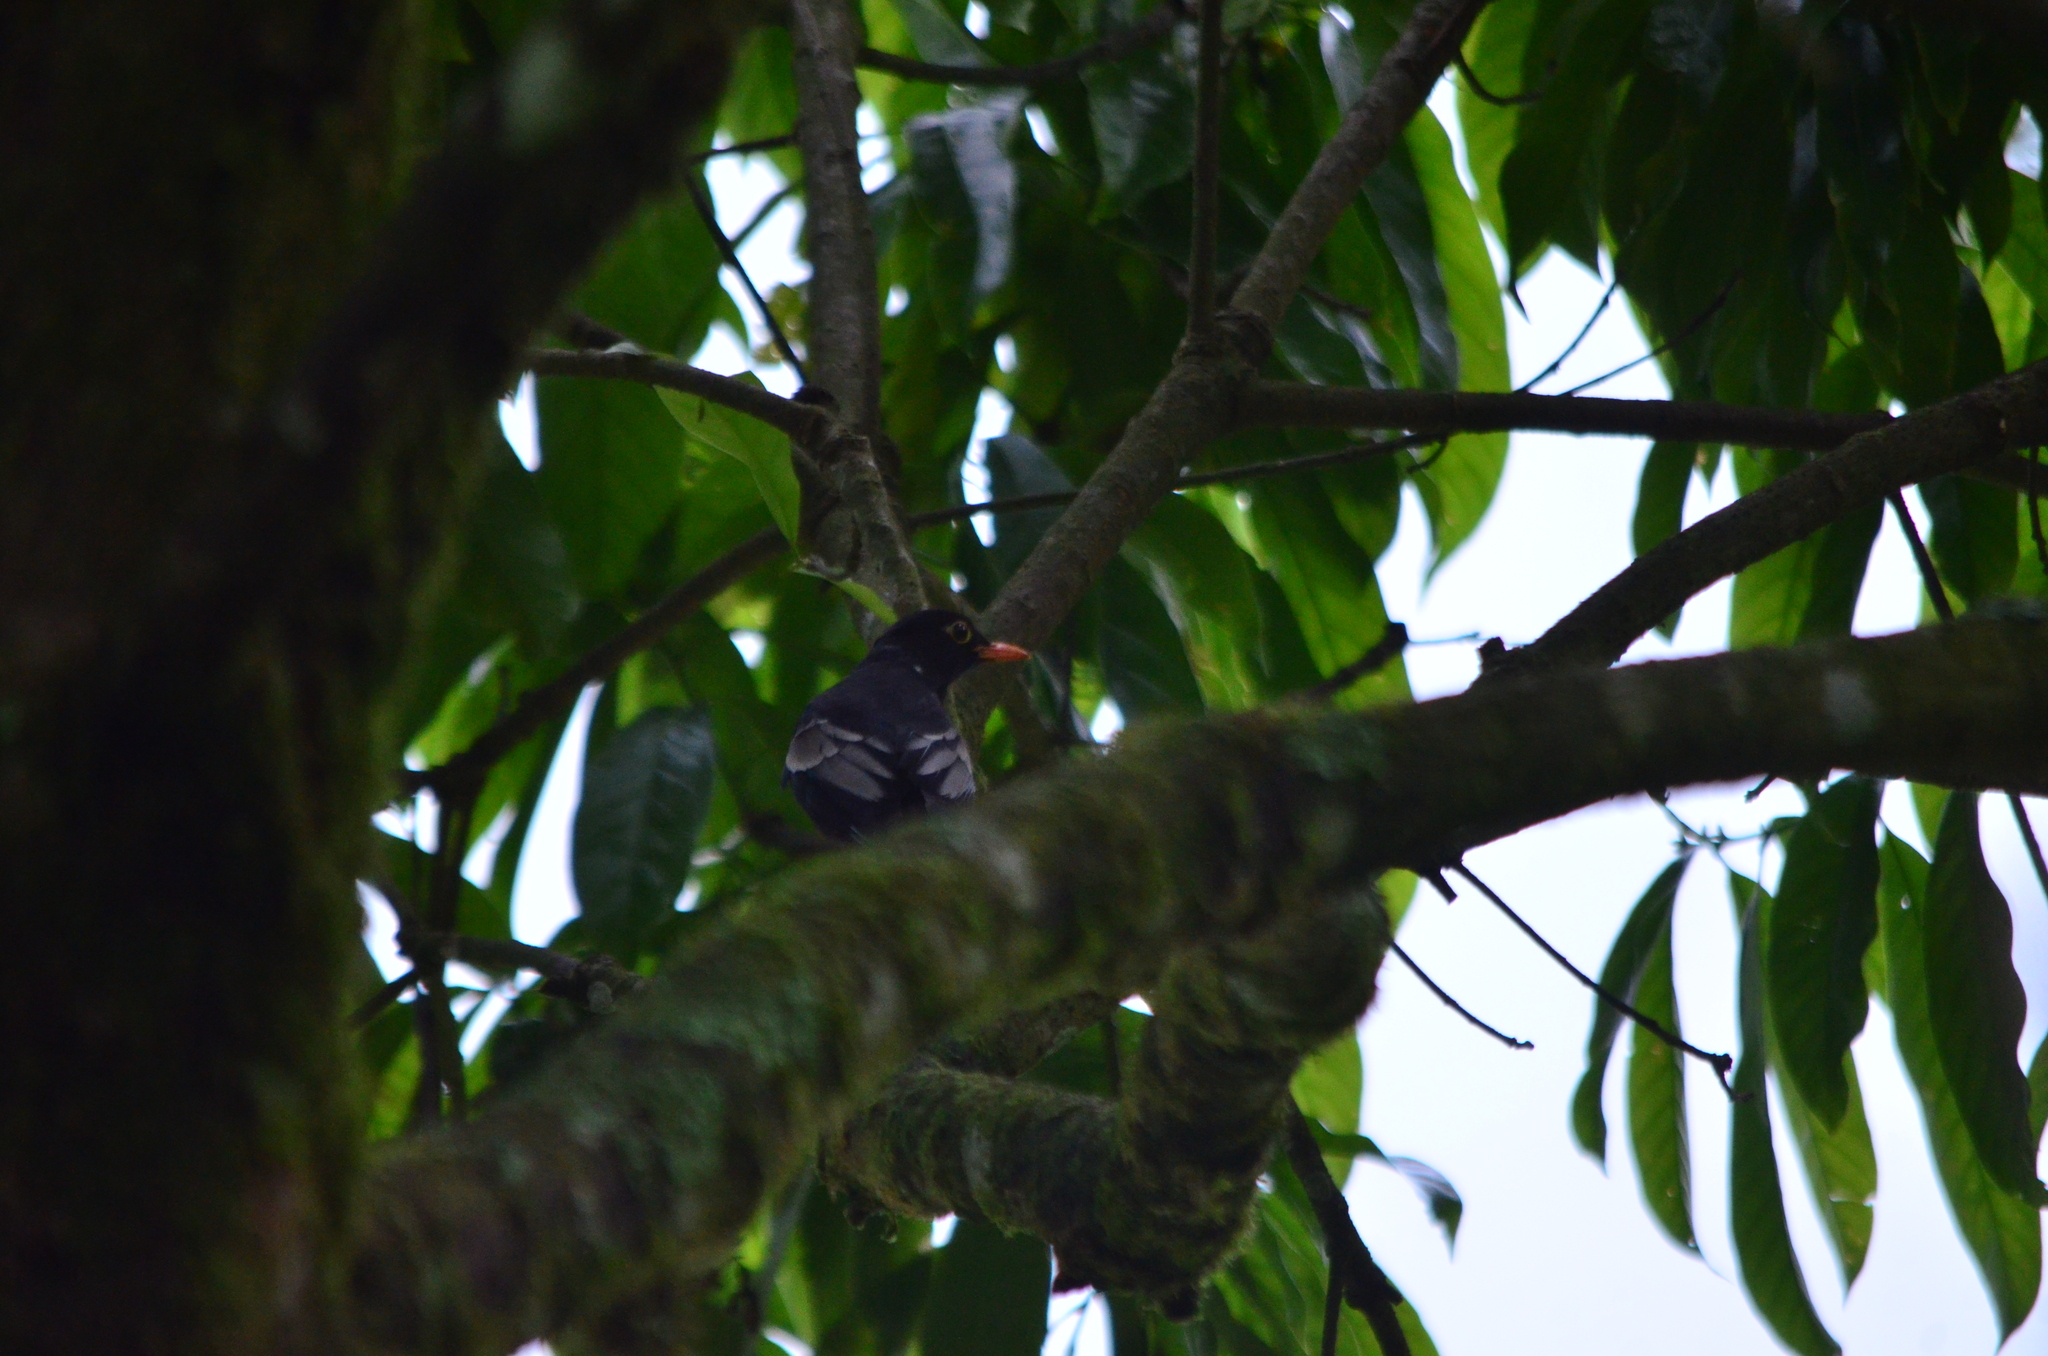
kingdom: Animalia
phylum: Chordata
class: Aves
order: Passeriformes
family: Turdidae
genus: Turdus
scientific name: Turdus boulboul
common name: Grey-winged blackbird
